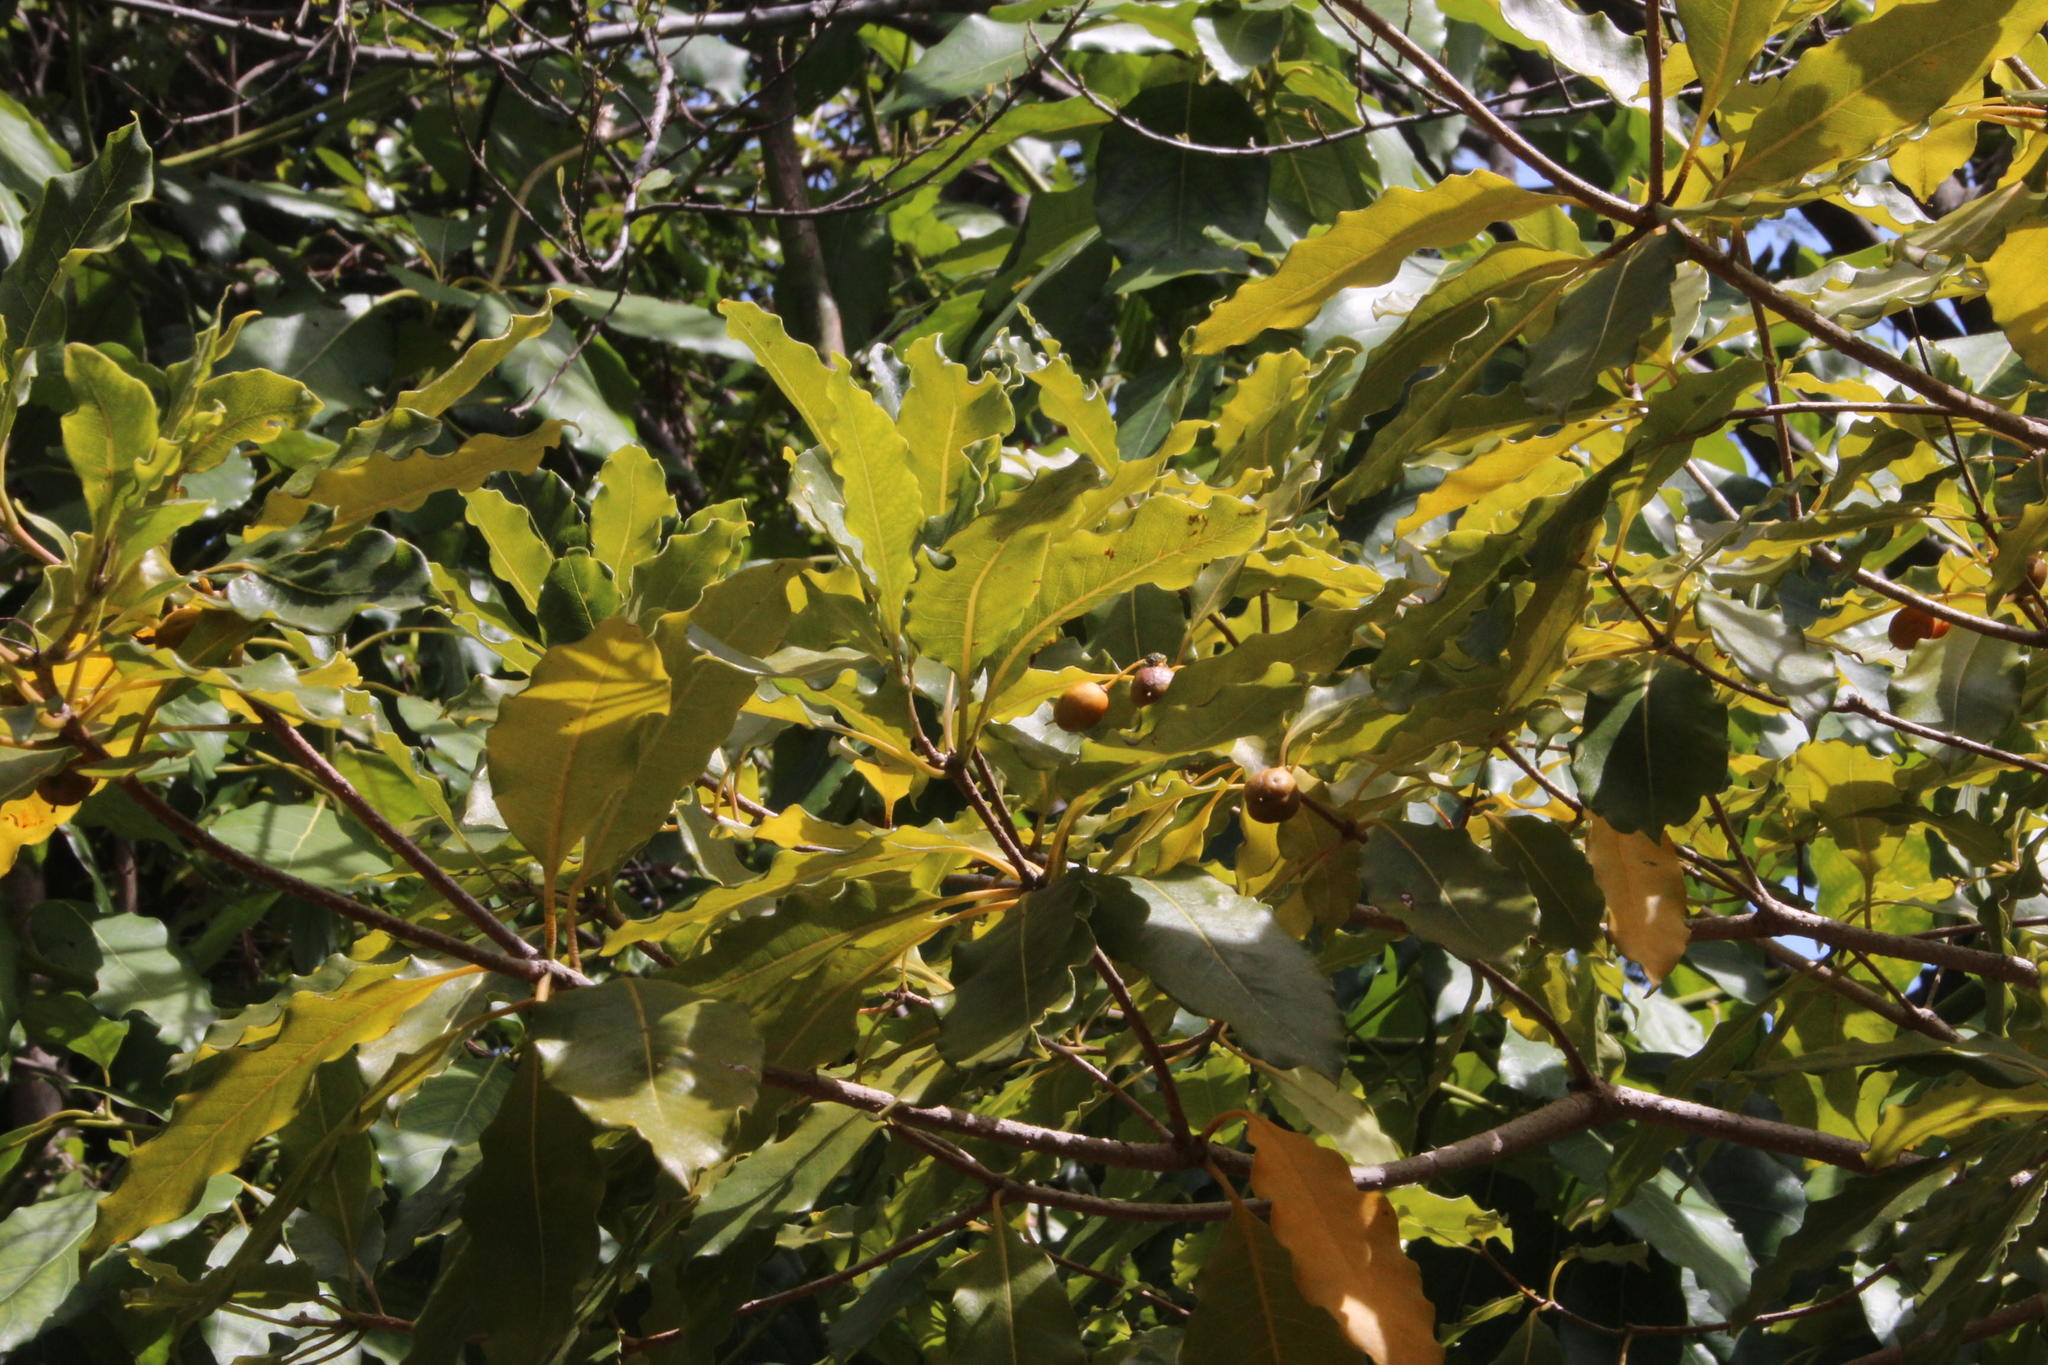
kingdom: Plantae
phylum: Tracheophyta
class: Magnoliopsida
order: Apiales
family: Pittosporaceae
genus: Pittosporum
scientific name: Pittosporum undulatum
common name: Australian cheesewood
